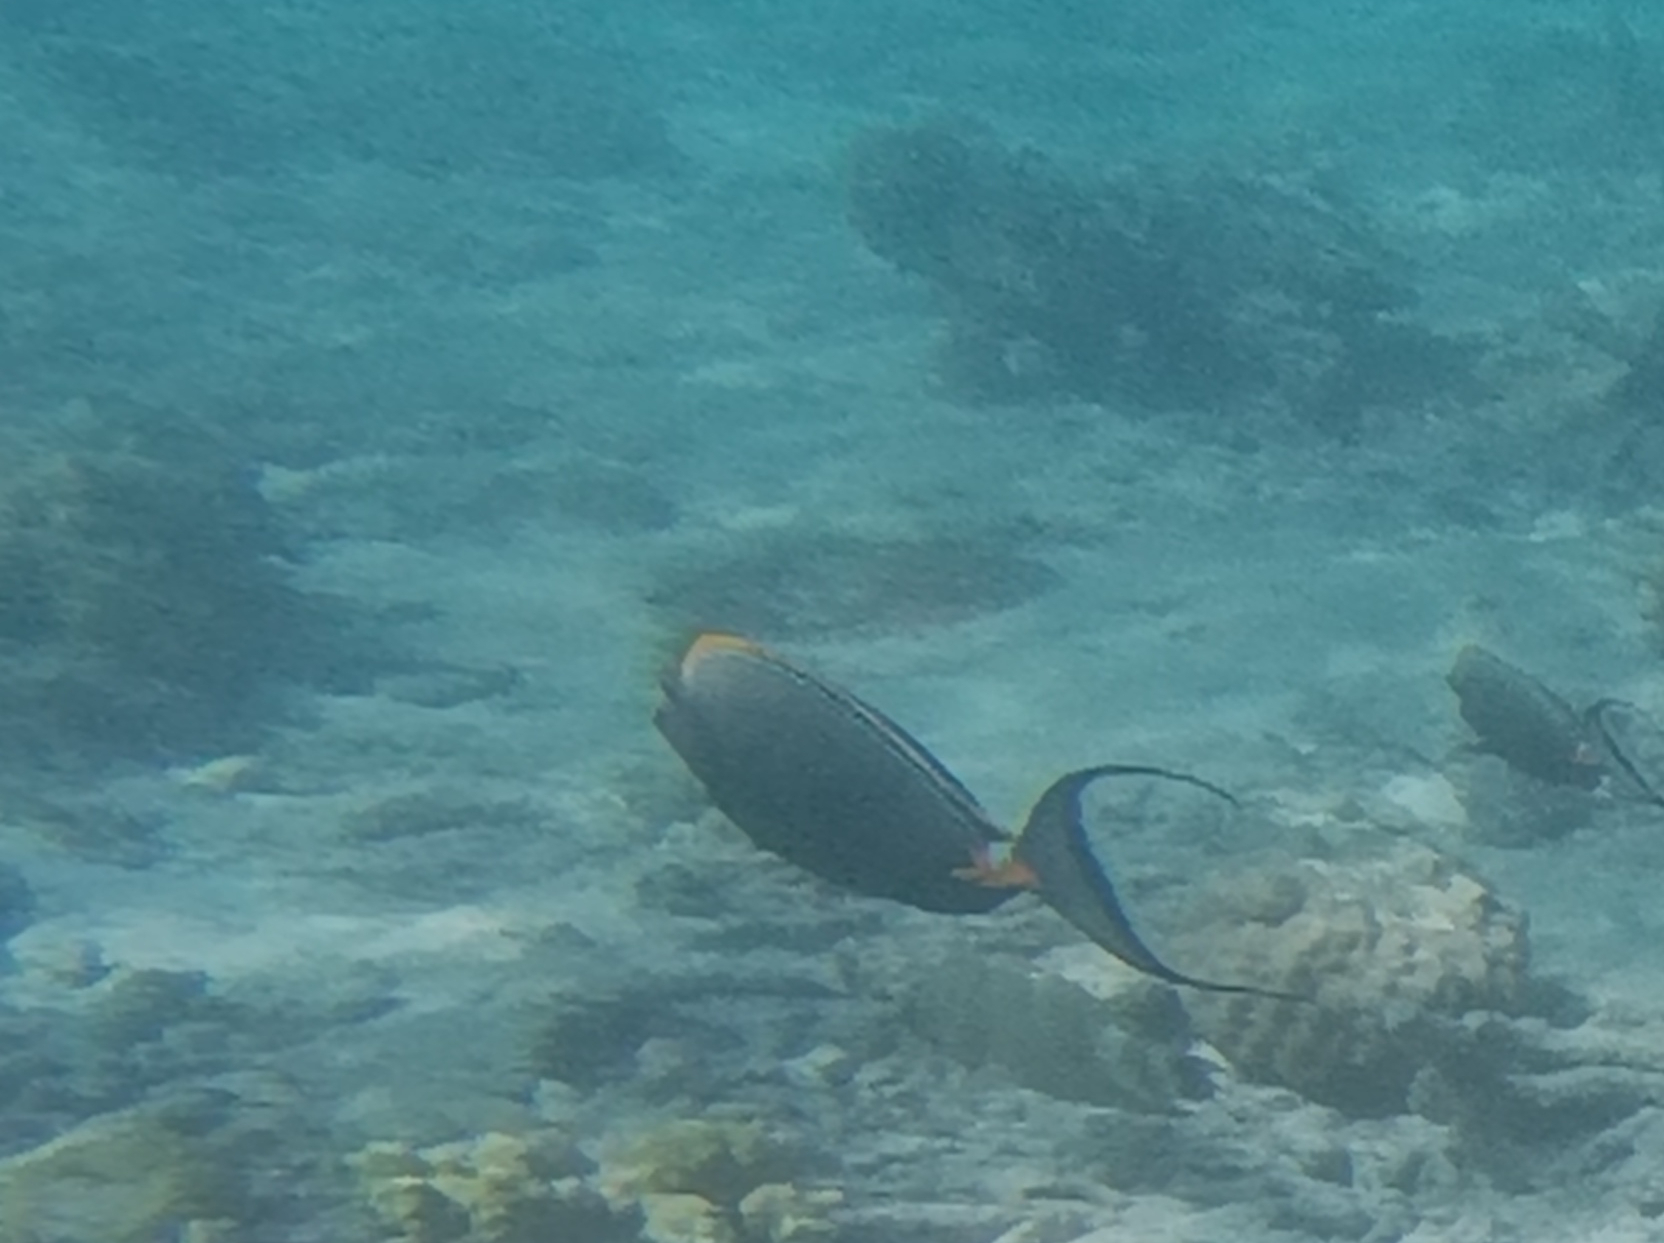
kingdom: Animalia
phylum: Chordata
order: Perciformes
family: Acanthuridae
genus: Naso
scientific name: Naso elegans
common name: Orangespine unicornfish
